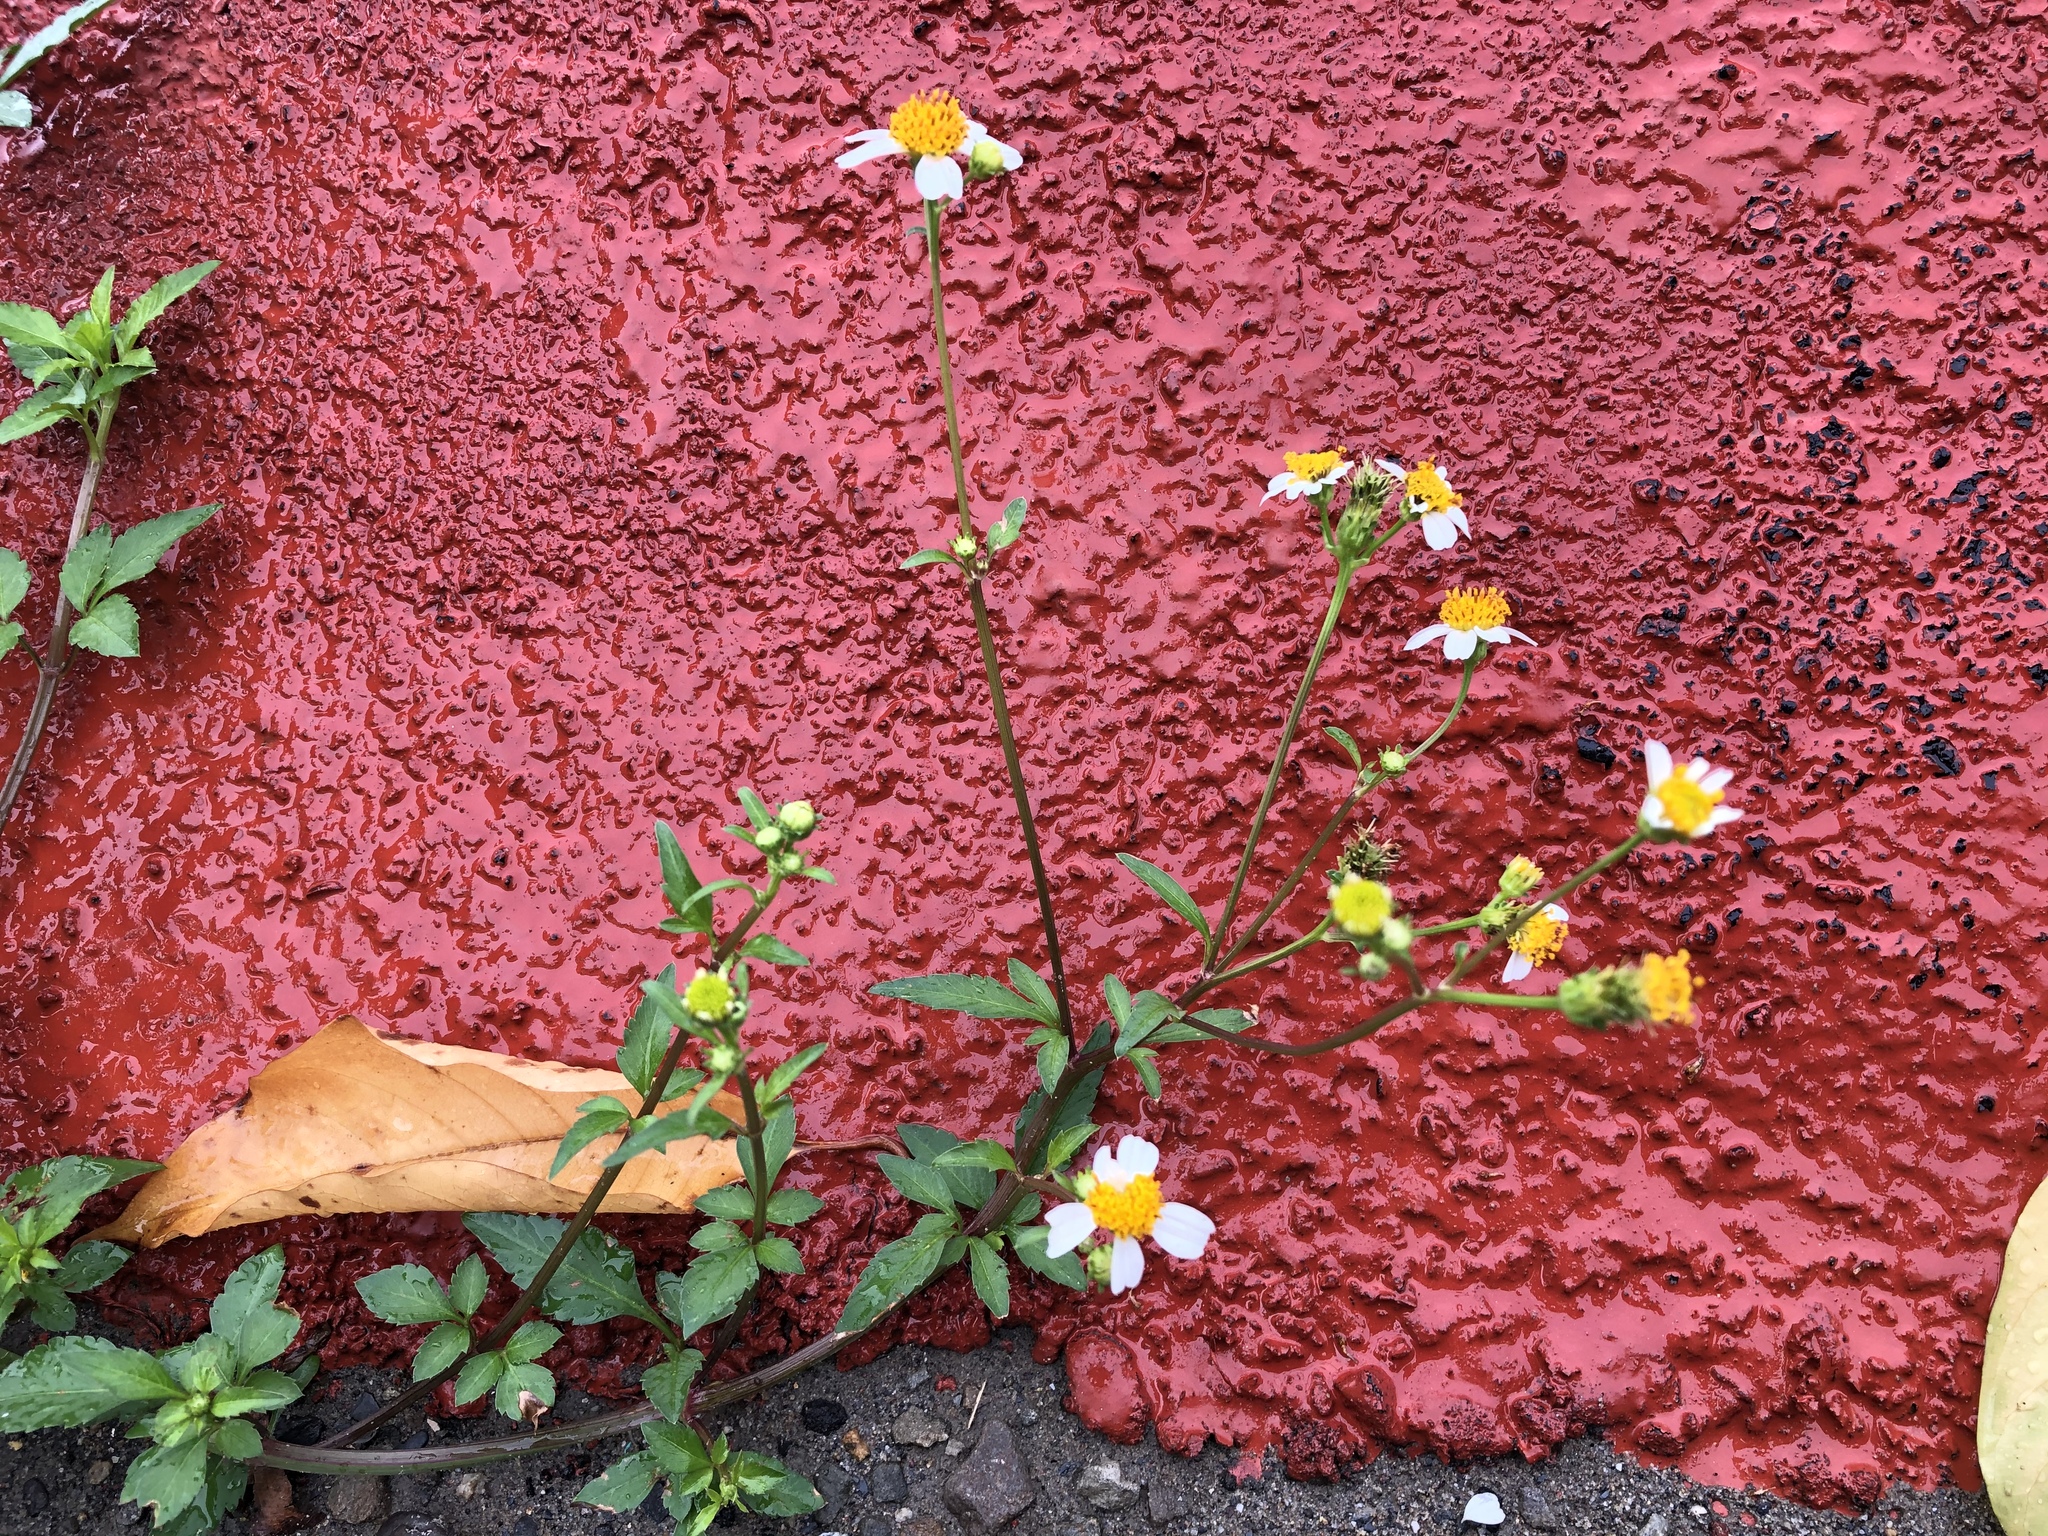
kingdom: Plantae
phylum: Tracheophyta
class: Magnoliopsida
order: Asterales
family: Asteraceae
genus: Bidens
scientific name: Bidens alba
